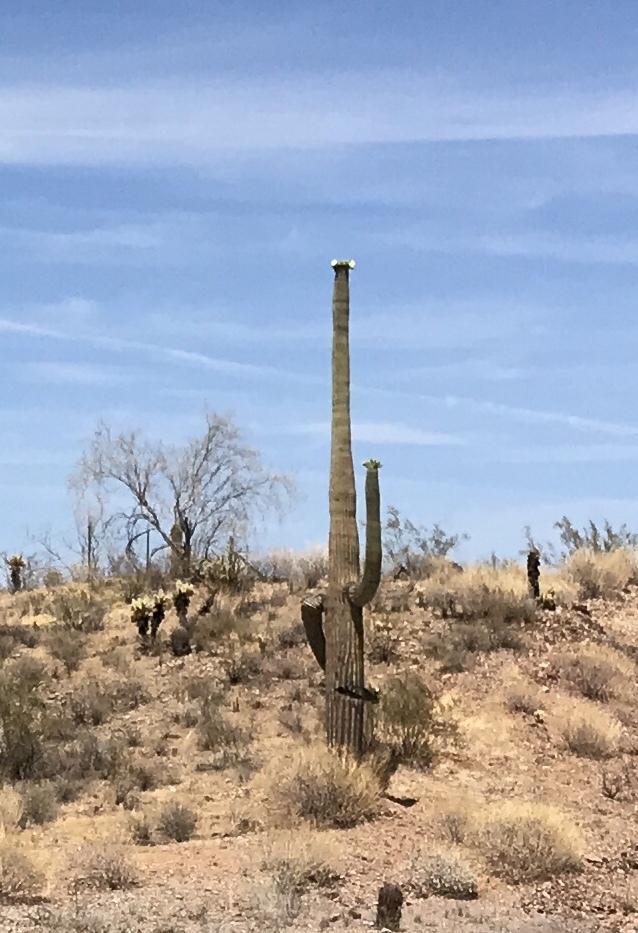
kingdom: Plantae
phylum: Tracheophyta
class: Magnoliopsida
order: Caryophyllales
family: Cactaceae
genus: Carnegiea
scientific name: Carnegiea gigantea
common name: Saguaro
